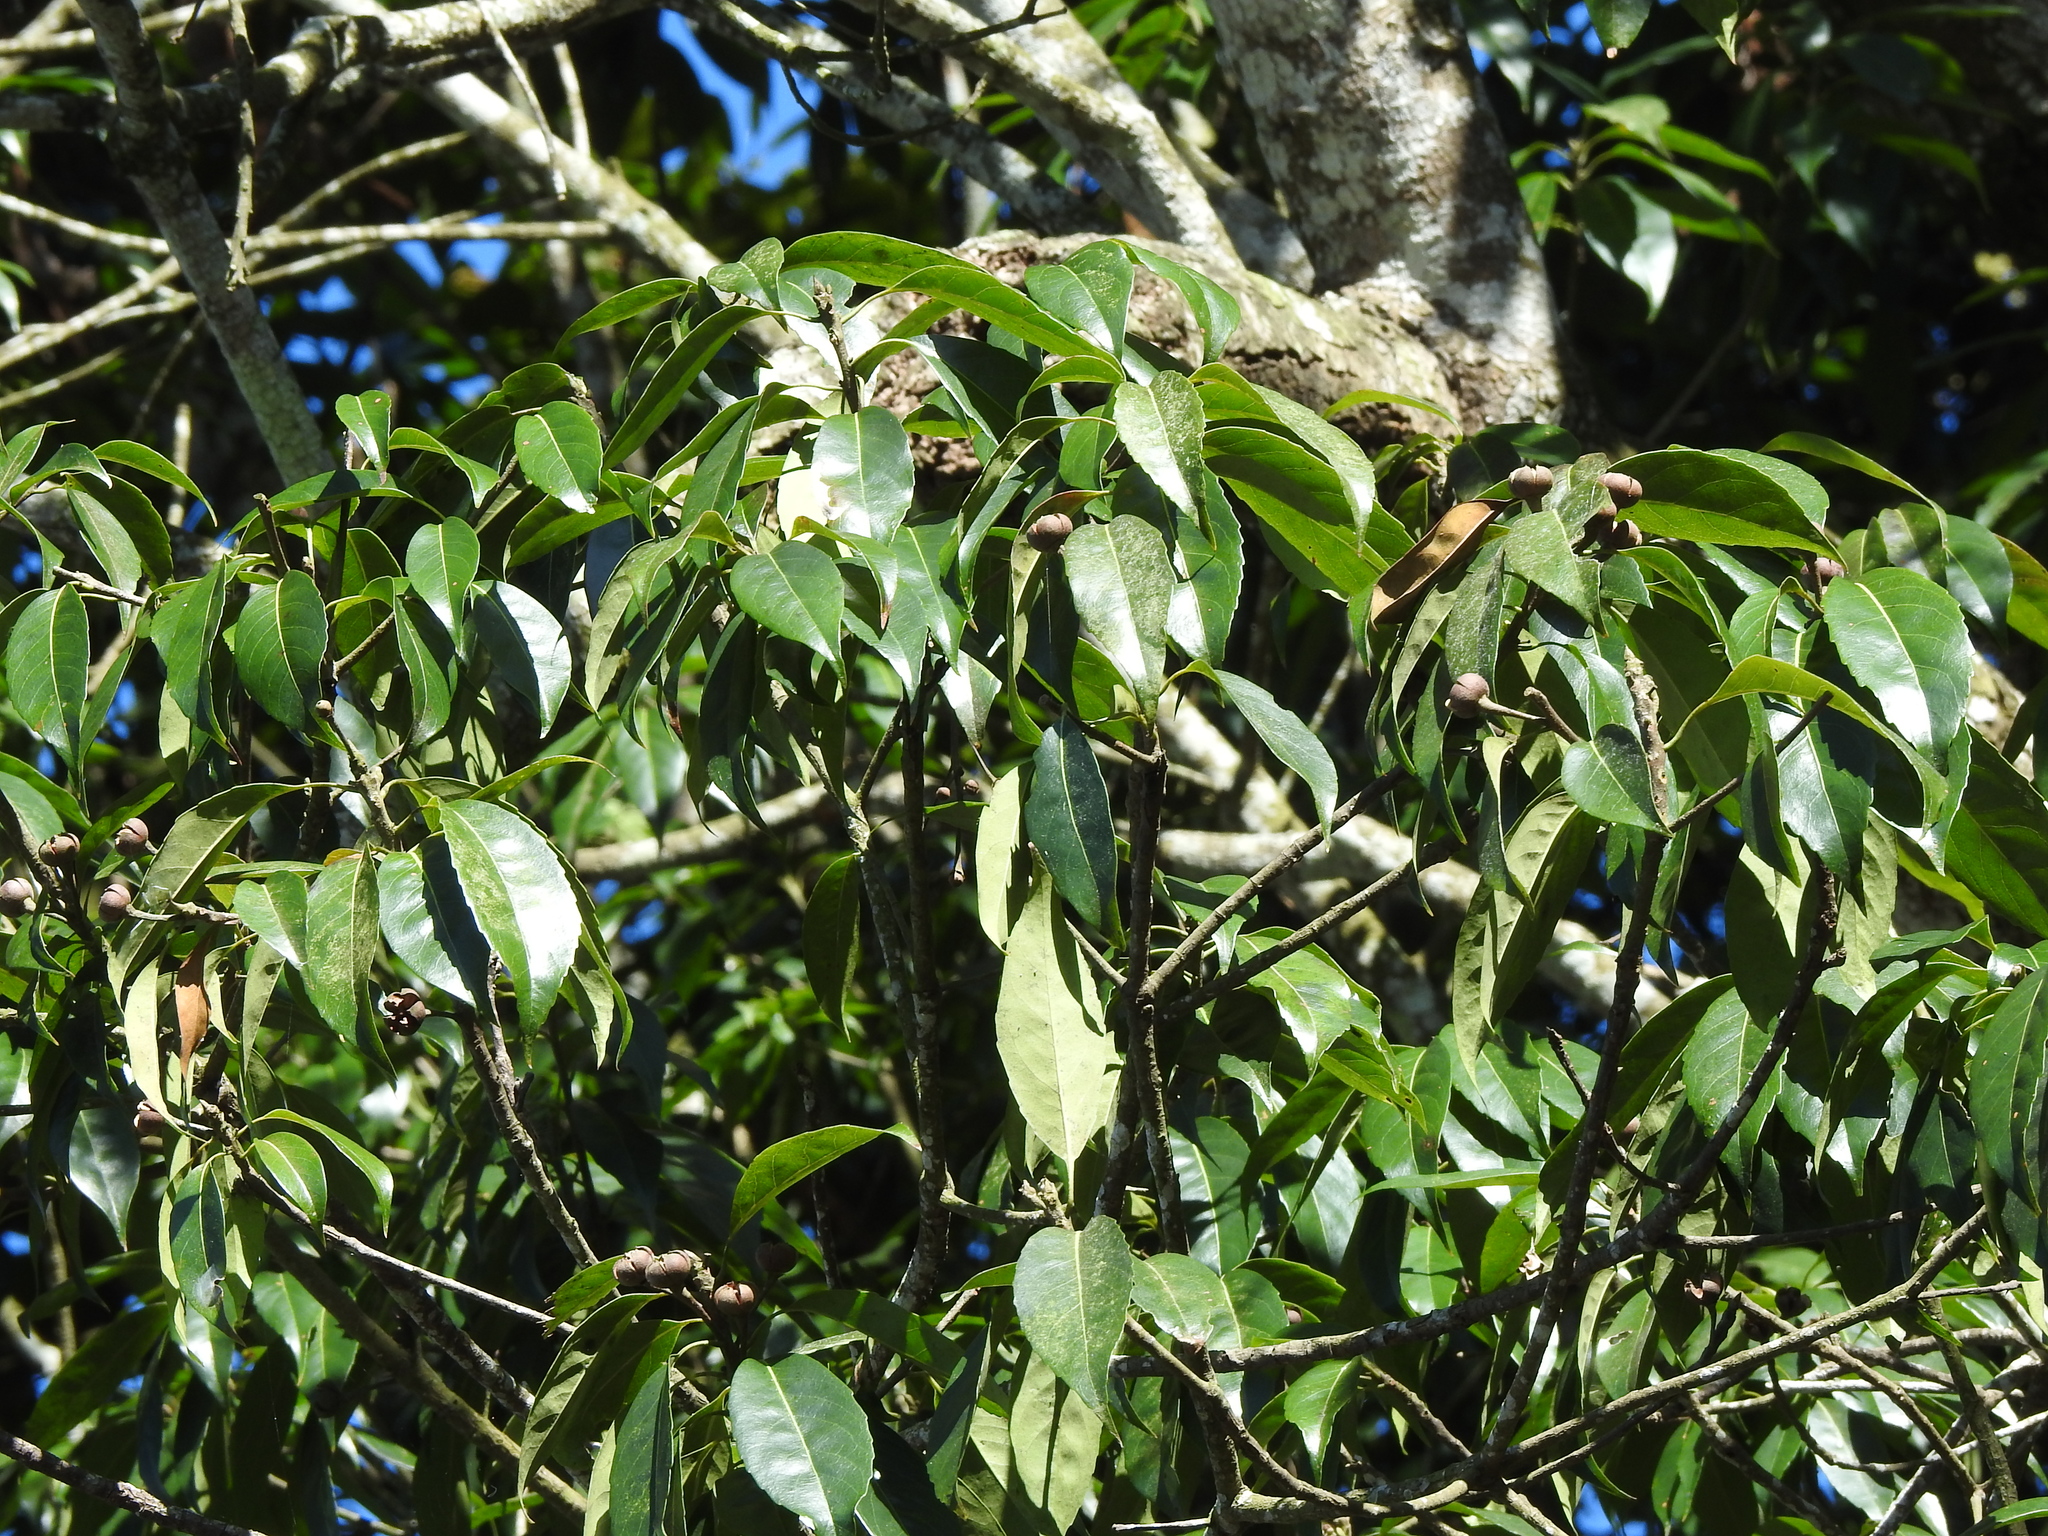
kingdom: Plantae
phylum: Tracheophyta
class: Magnoliopsida
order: Ericales
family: Theaceae
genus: Schima
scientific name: Schima superba
